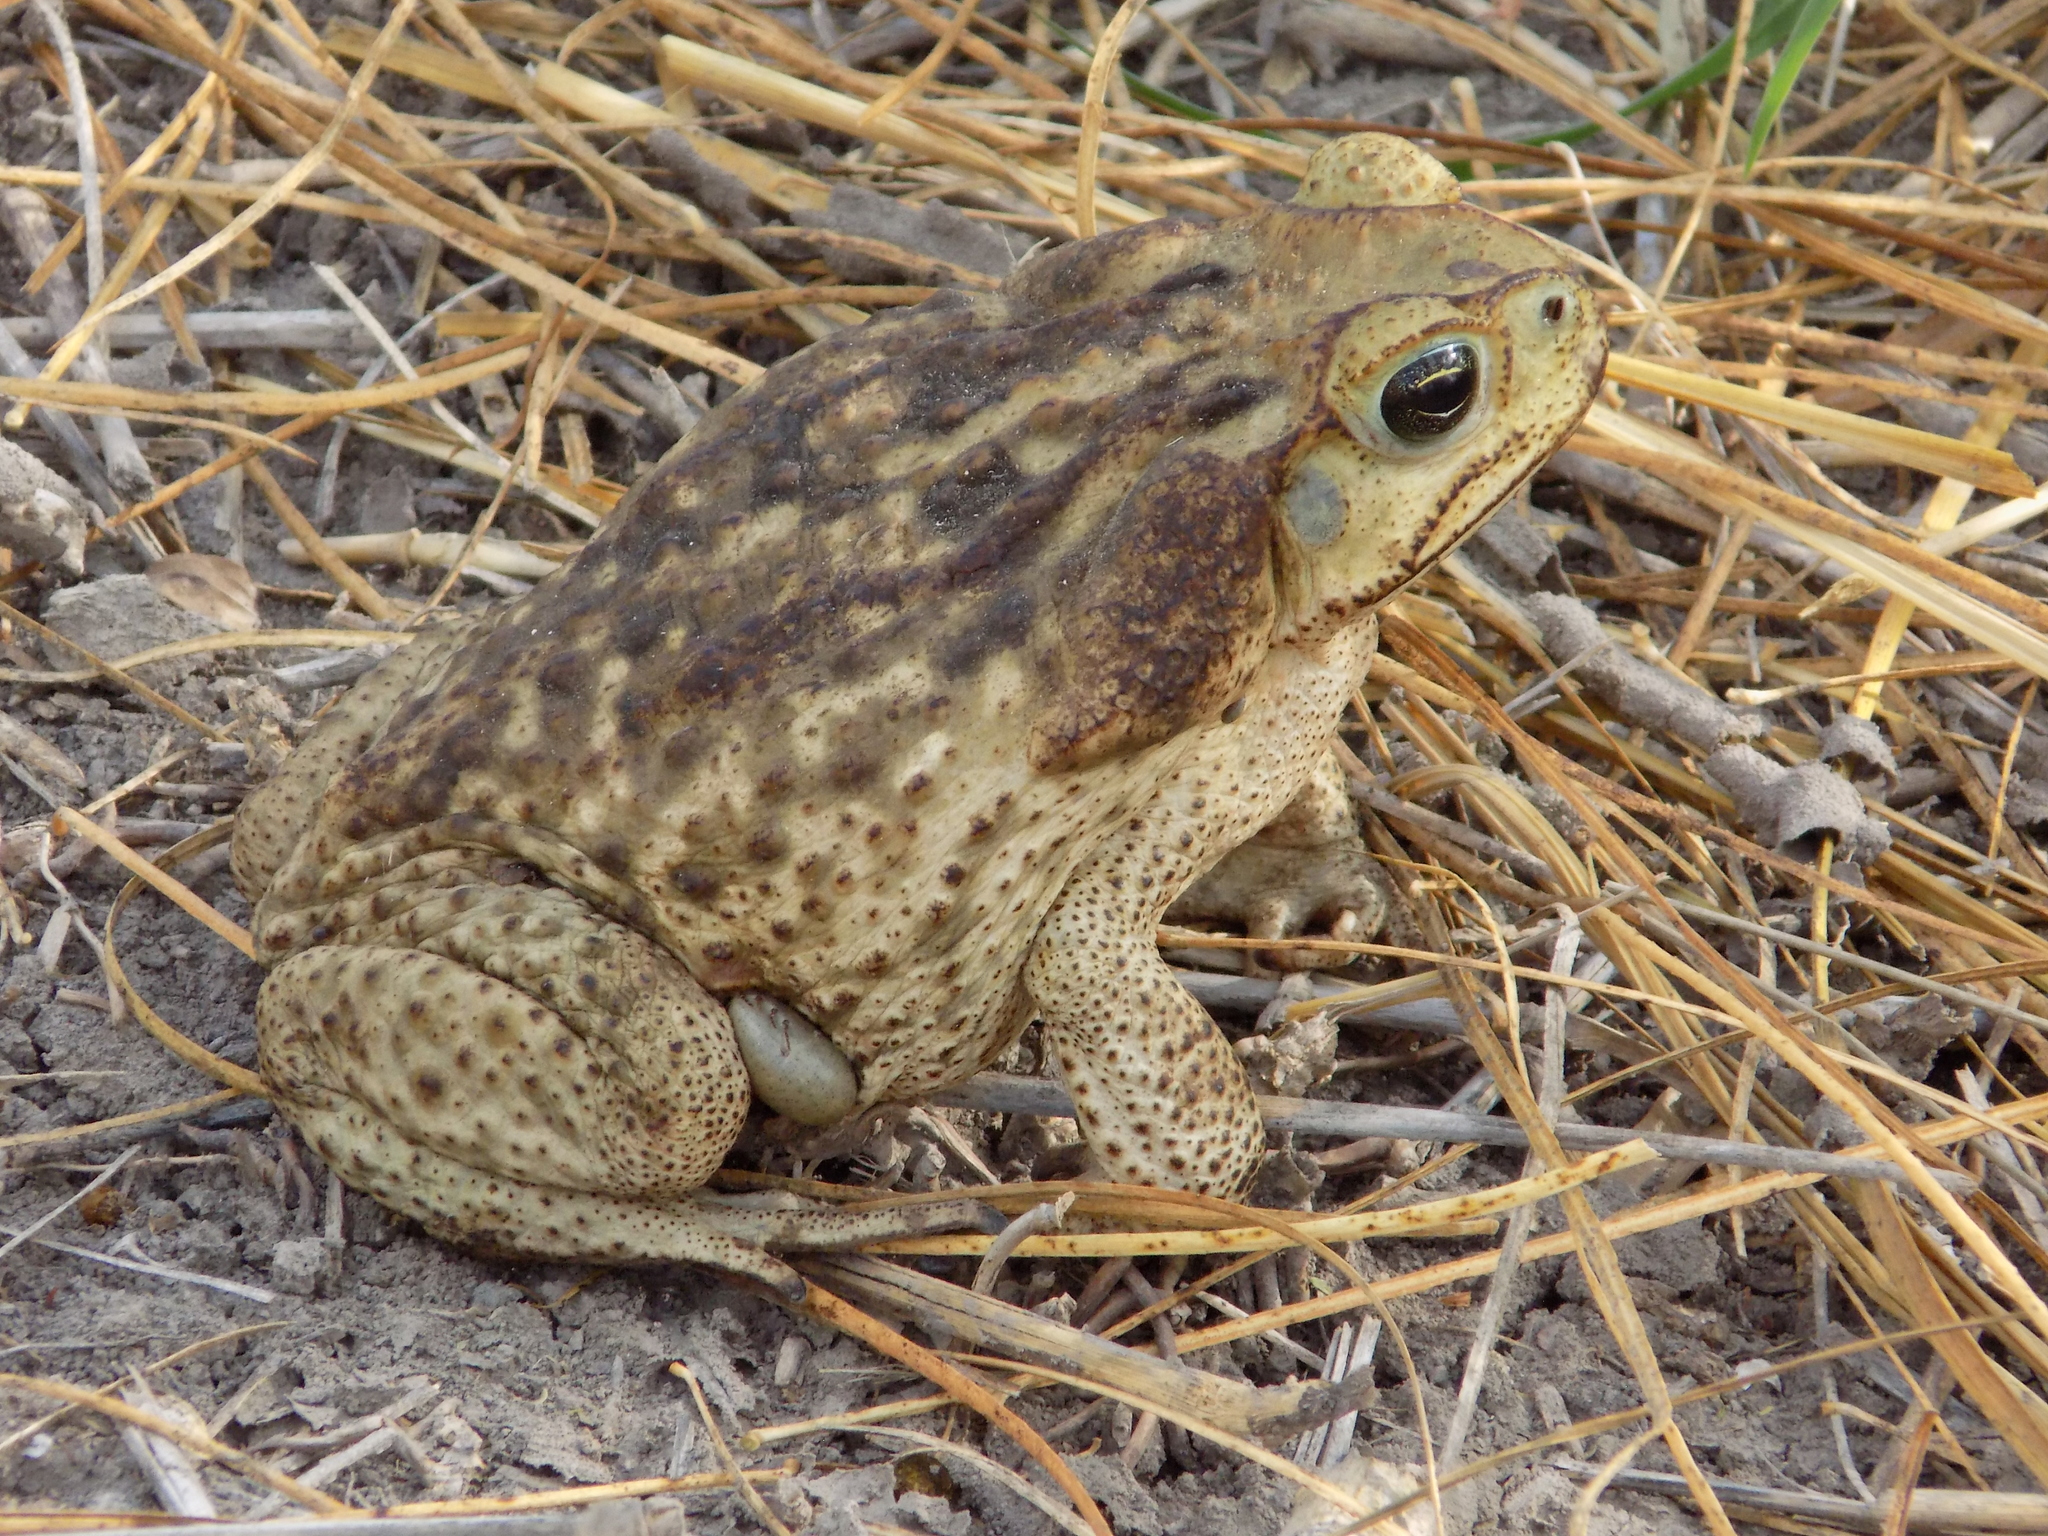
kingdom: Animalia
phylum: Chordata
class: Amphibia
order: Anura
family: Bufonidae
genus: Rhinella
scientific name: Rhinella horribilis
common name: Mesoamerican cane toad
